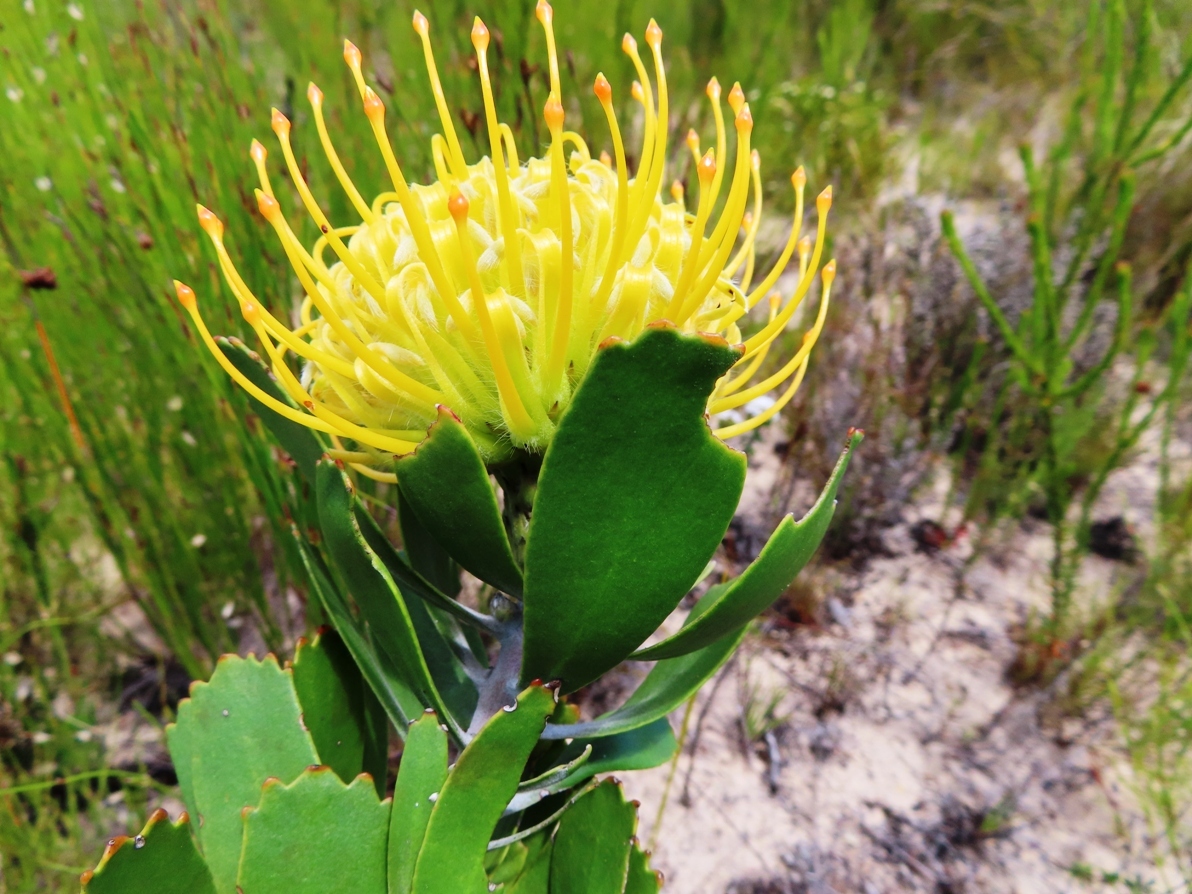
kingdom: Plantae
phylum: Tracheophyta
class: Magnoliopsida
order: Proteales
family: Proteaceae
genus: Leucospermum
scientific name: Leucospermum cuneiforme
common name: Common pincushion
